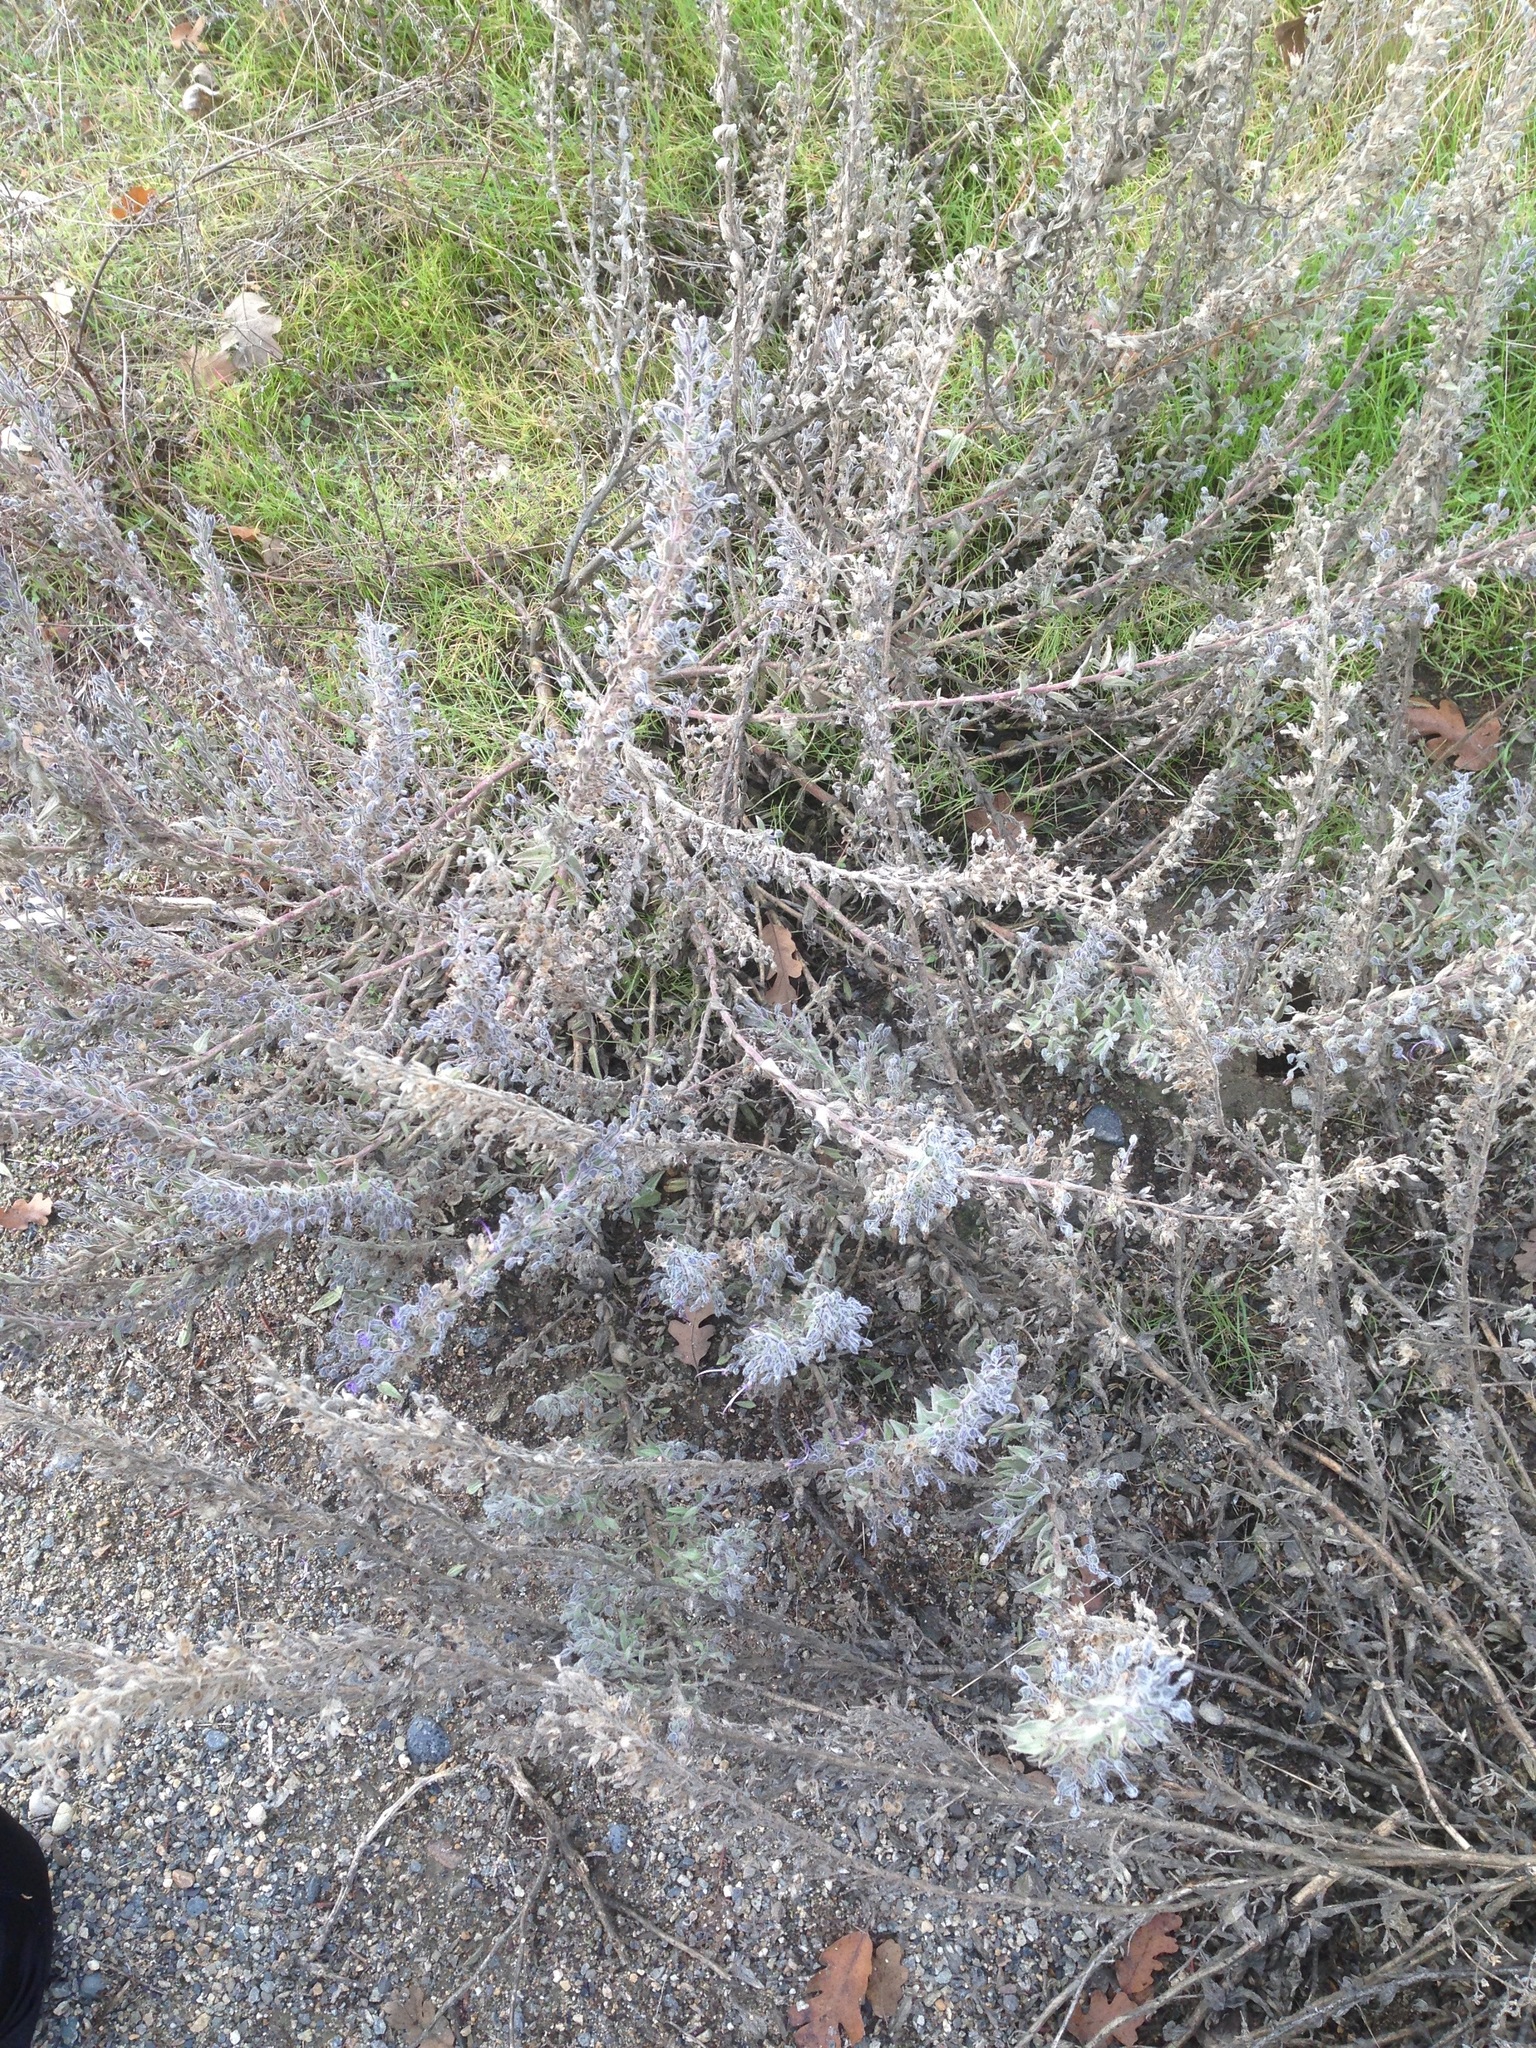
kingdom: Plantae
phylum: Tracheophyta
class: Magnoliopsida
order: Lamiales
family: Lamiaceae
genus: Trichostema
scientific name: Trichostema lanceolatum
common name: Vinegar-weed
